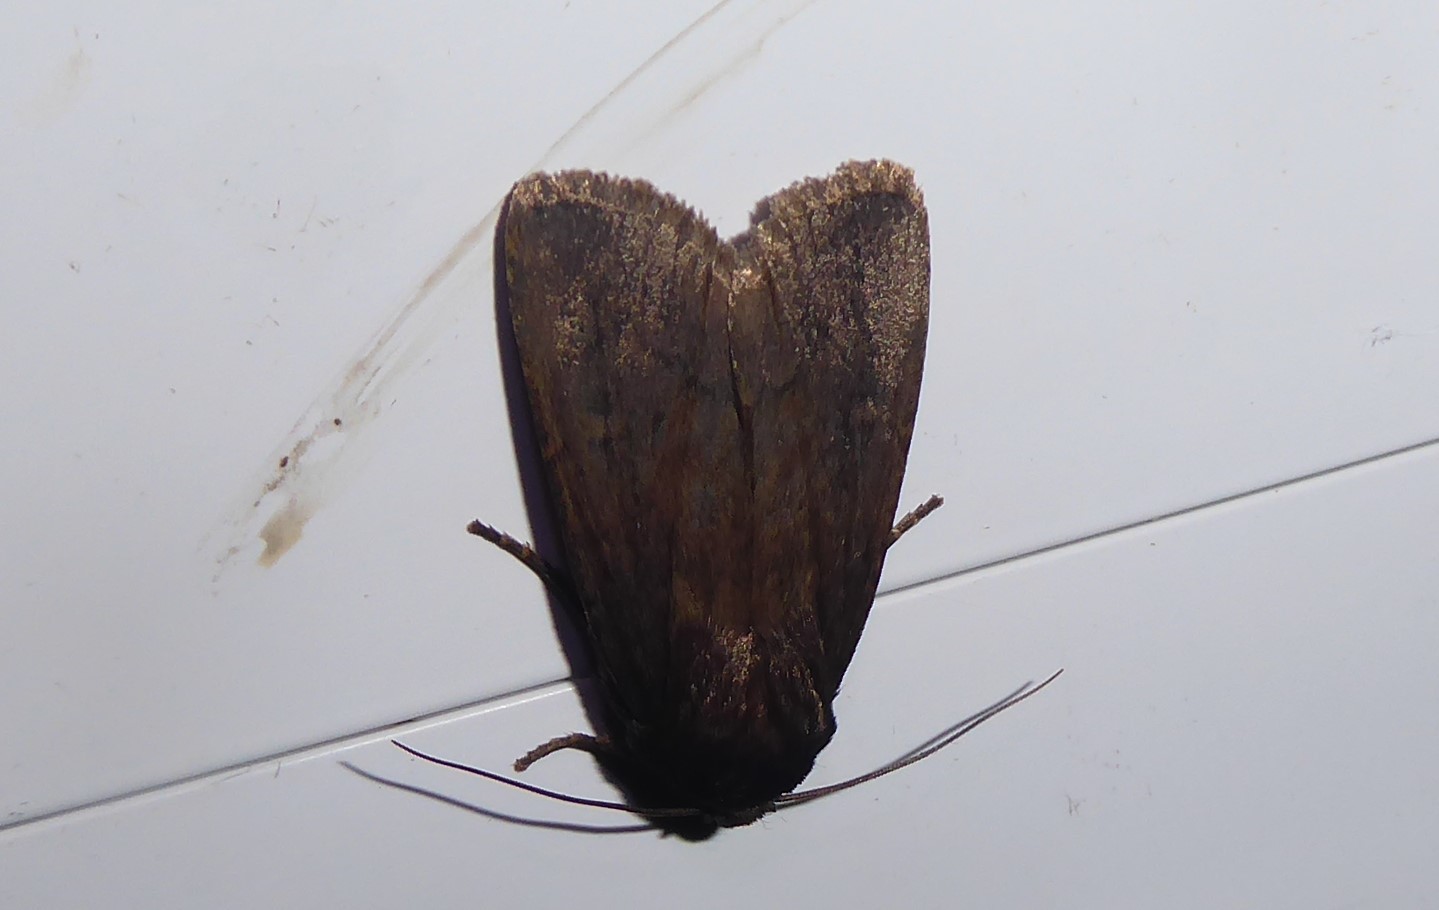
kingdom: Animalia
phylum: Arthropoda
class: Insecta
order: Lepidoptera
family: Noctuidae
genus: Bityla
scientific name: Bityla defigurata
